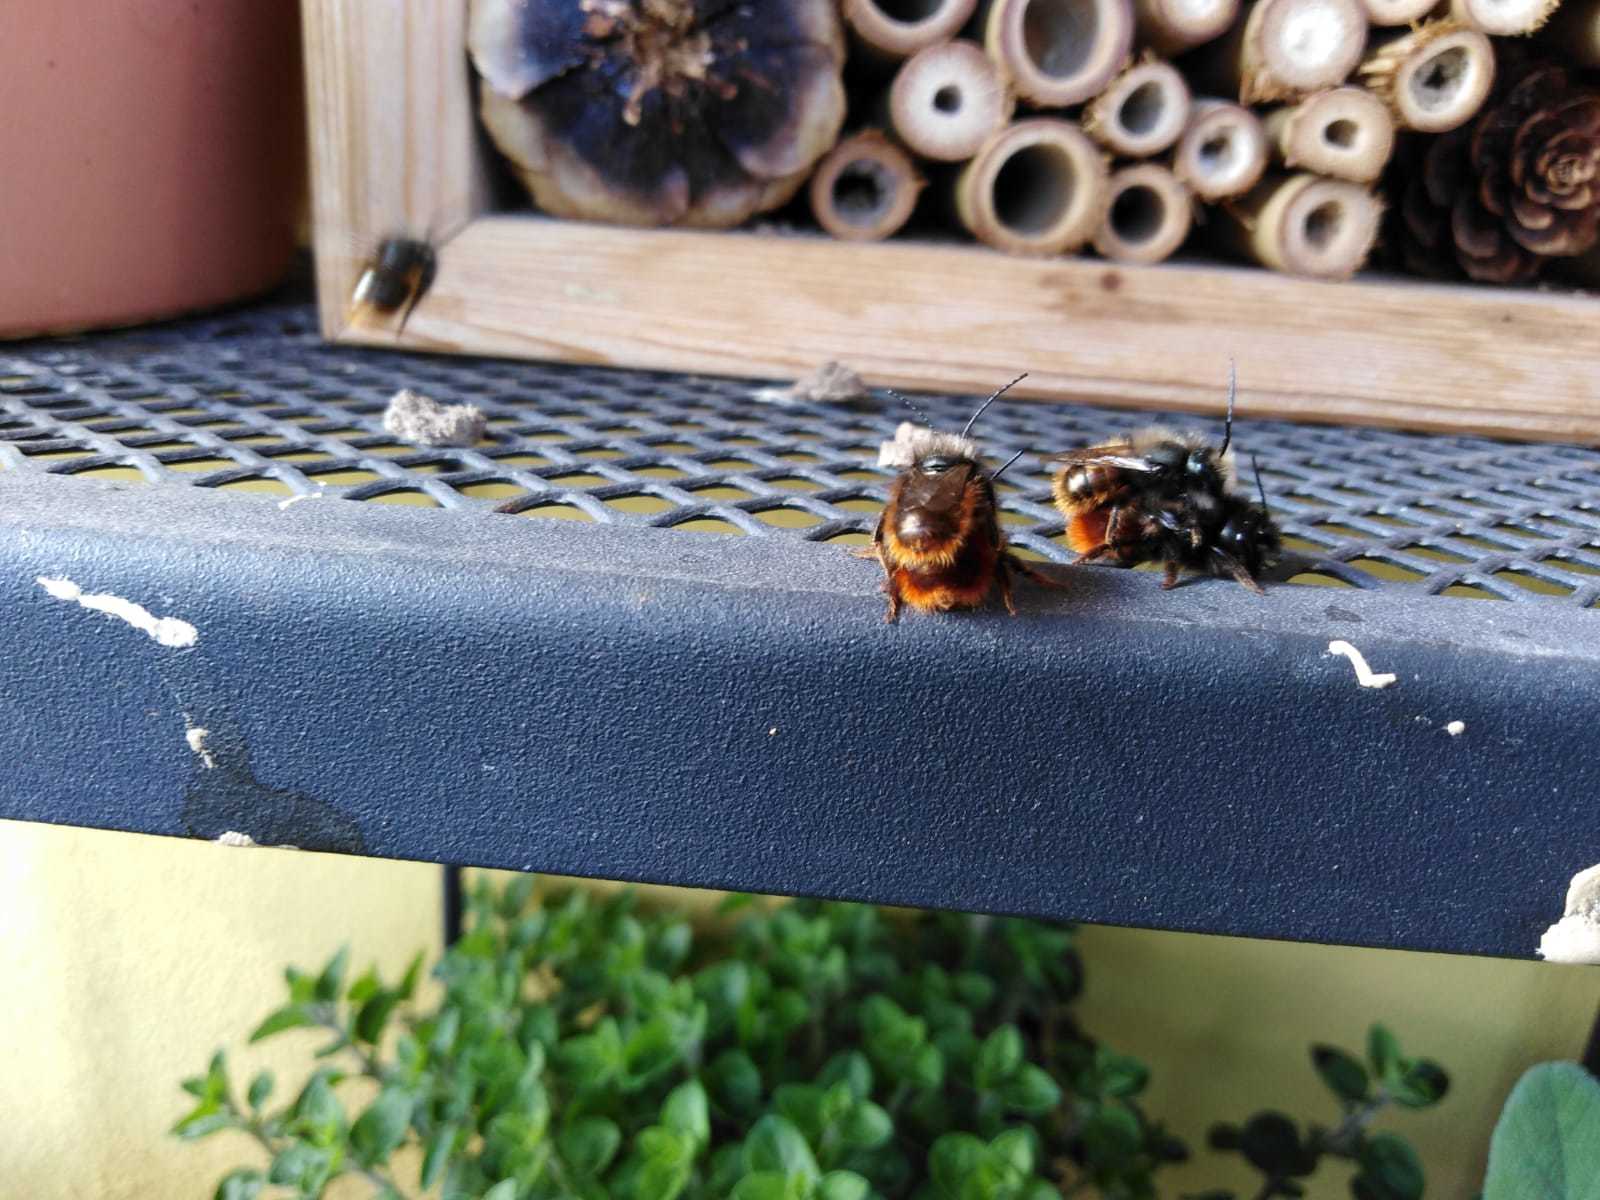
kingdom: Animalia
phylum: Arthropoda
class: Insecta
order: Hymenoptera
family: Megachilidae
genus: Osmia
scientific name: Osmia cornuta
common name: Mason bee
